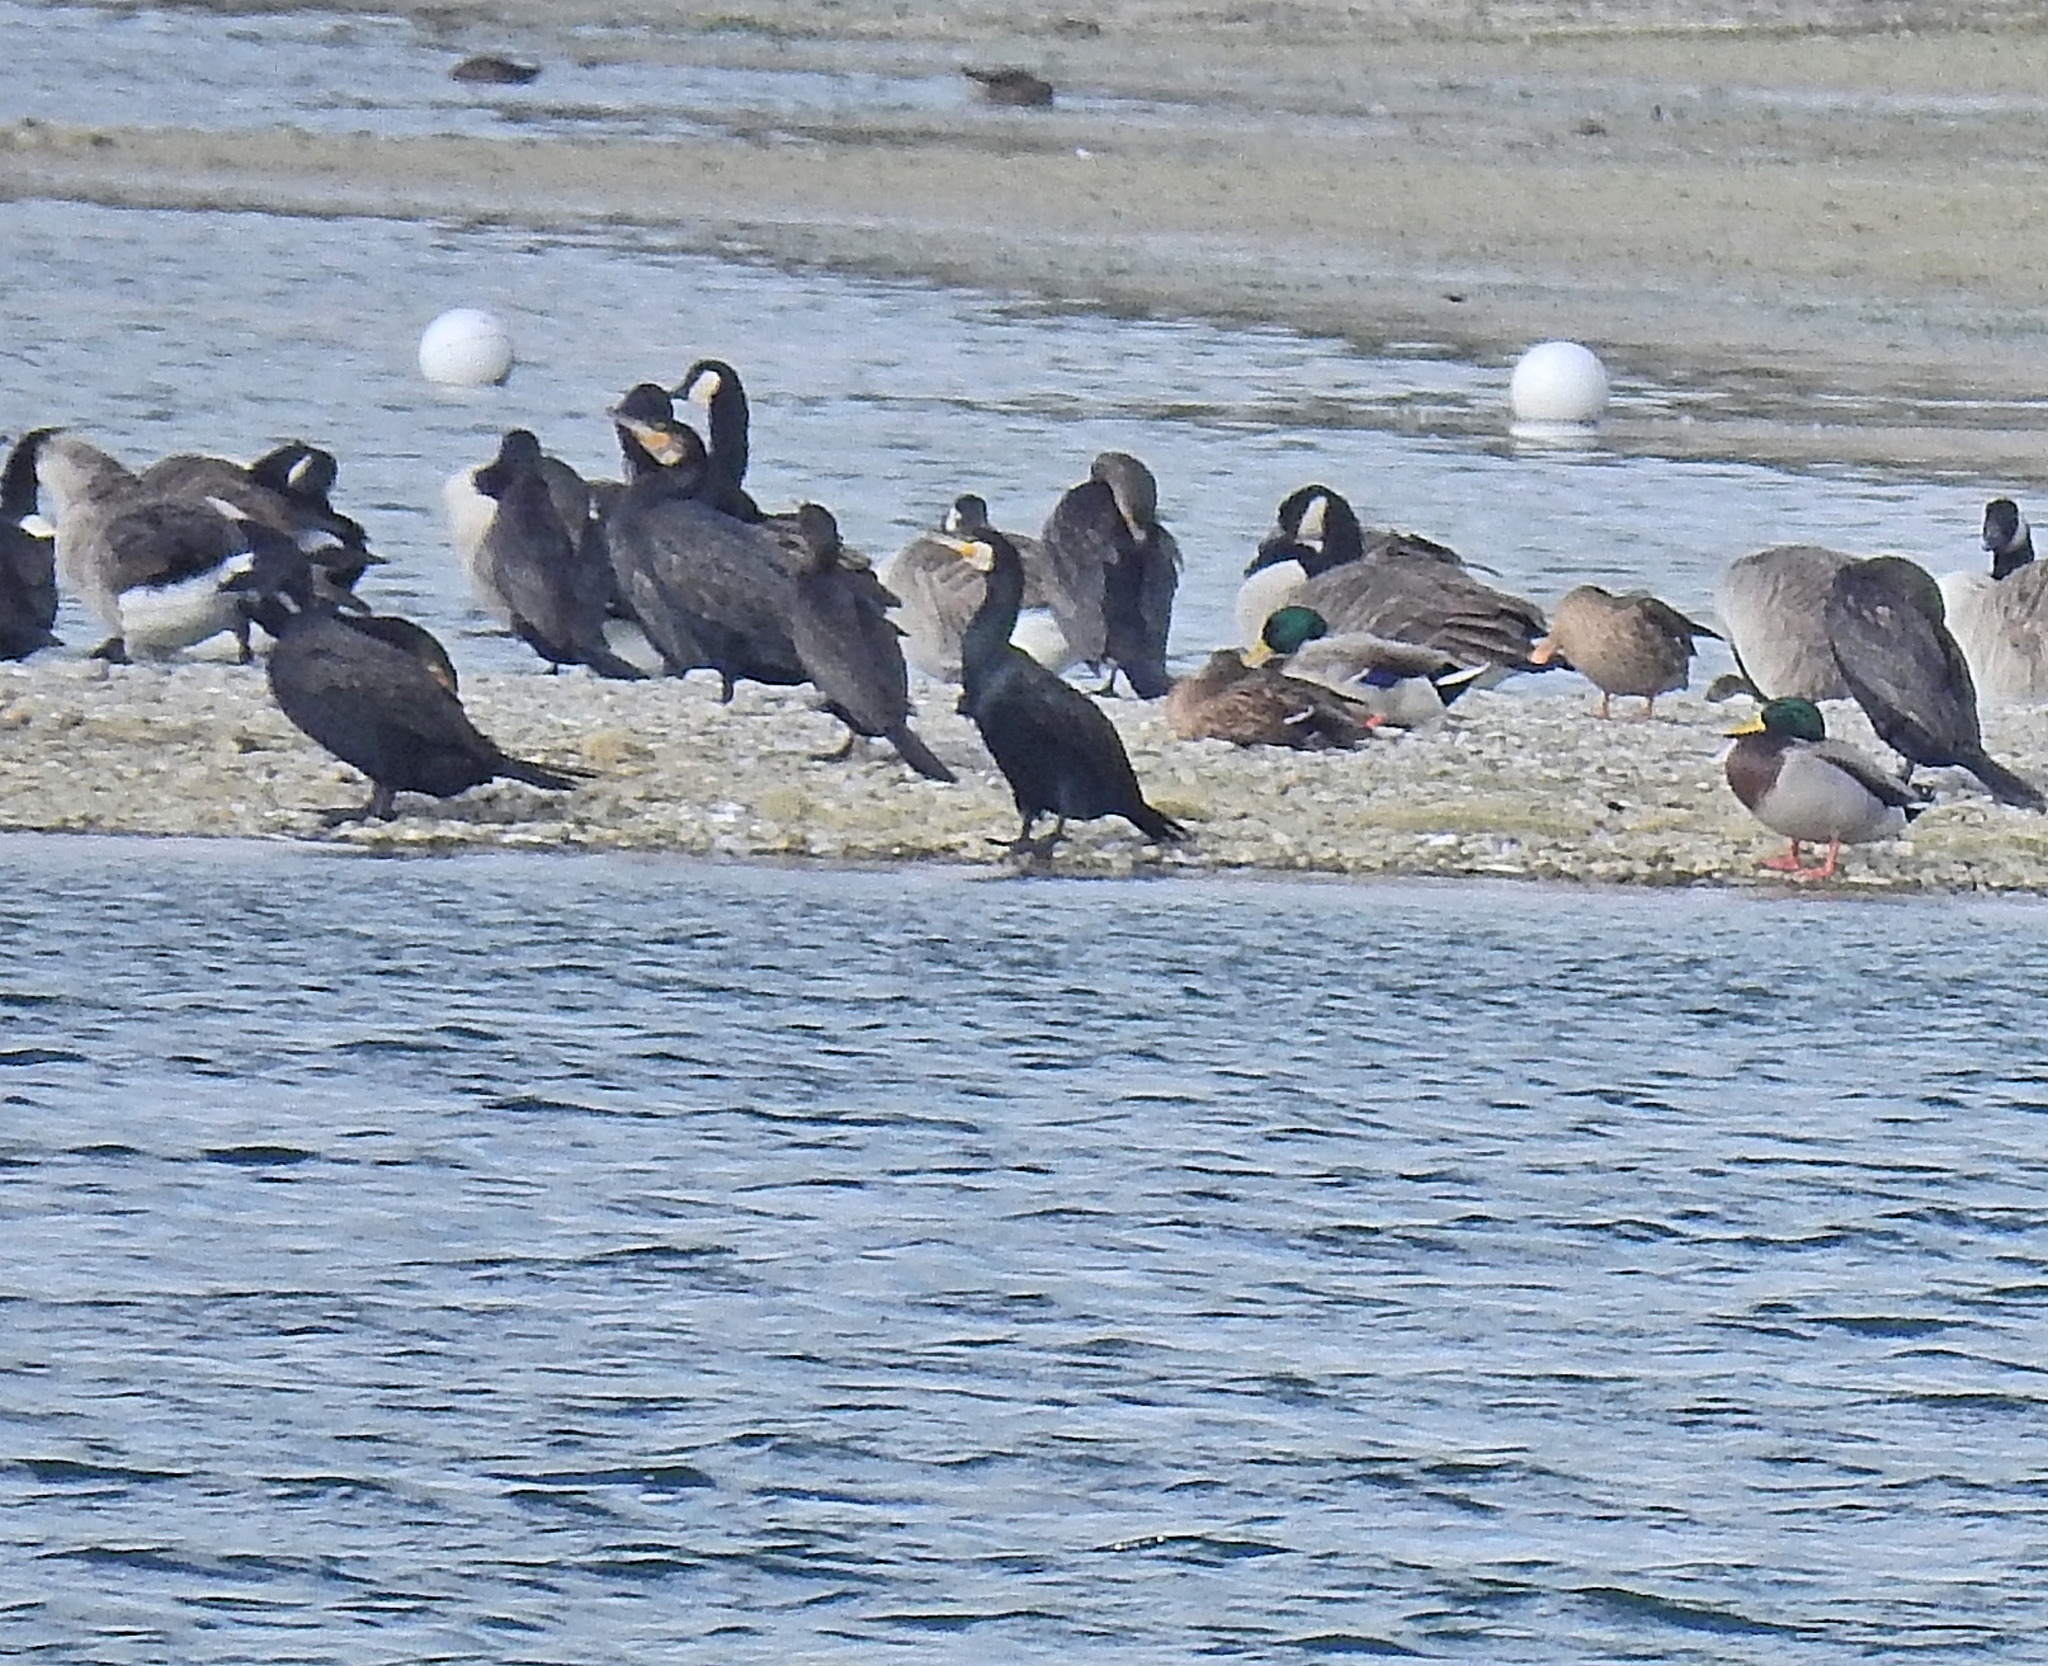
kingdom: Animalia
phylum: Chordata
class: Aves
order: Suliformes
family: Phalacrocoracidae
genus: Phalacrocorax
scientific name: Phalacrocorax carbo
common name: Great cormorant
